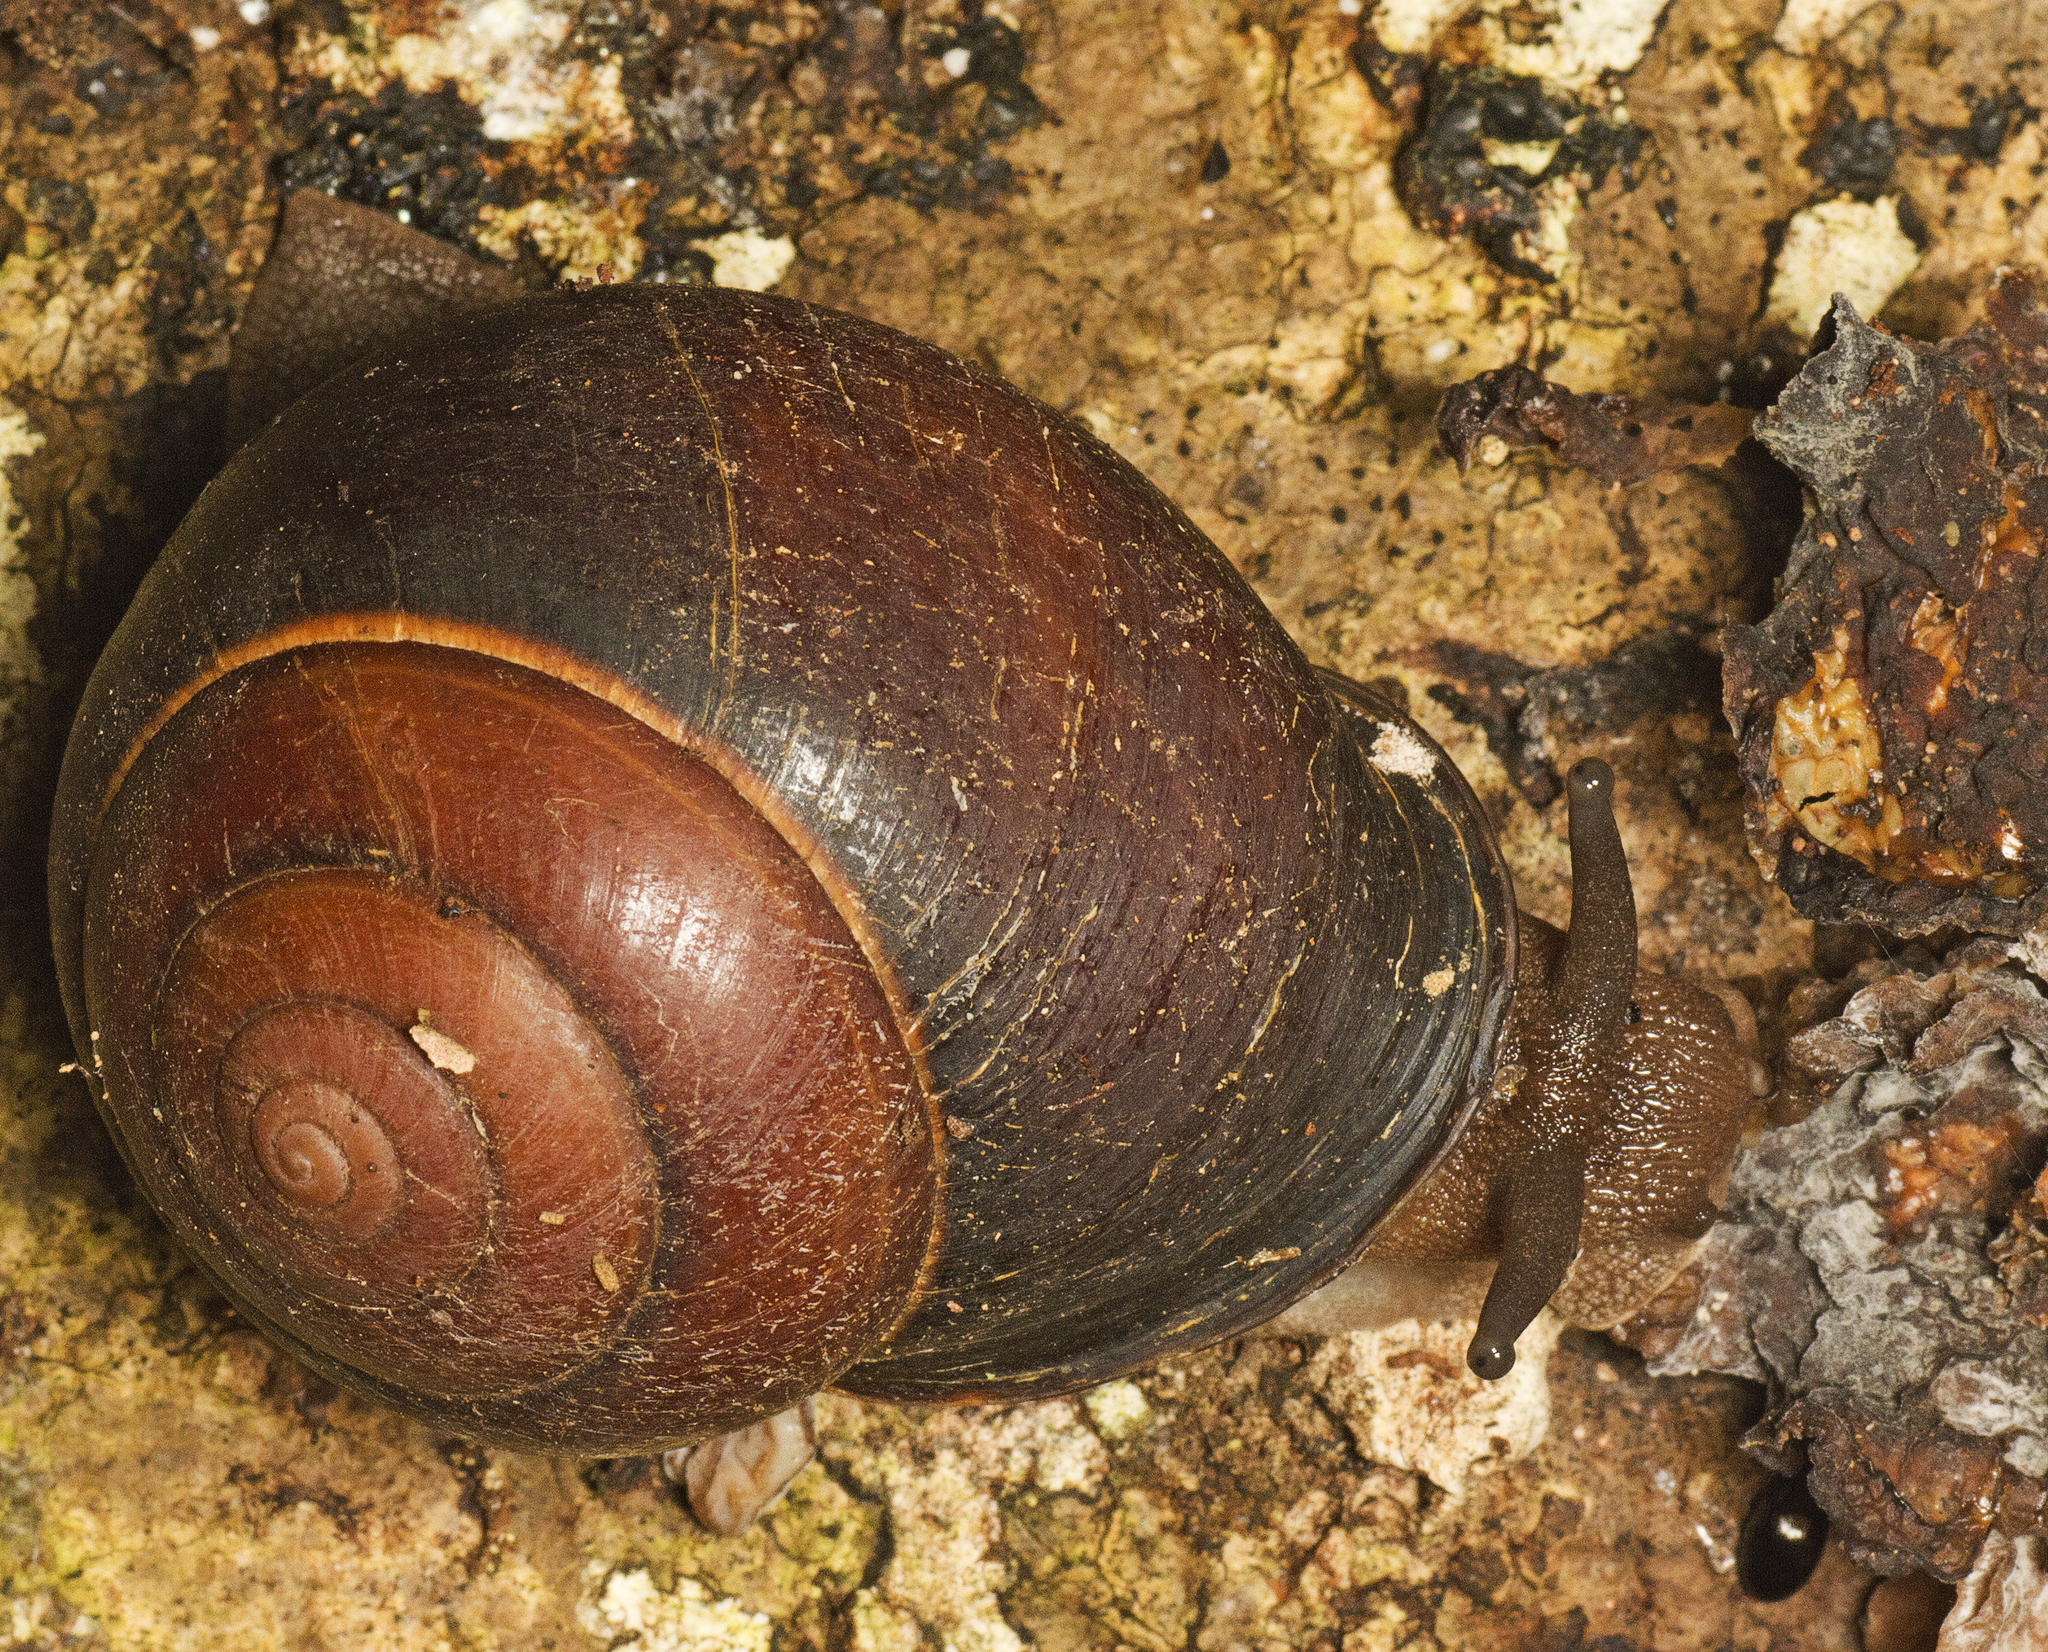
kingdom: Animalia
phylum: Mollusca
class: Gastropoda
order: Stylommatophora
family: Camaenidae
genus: Sphaerospira
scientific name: Sphaerospira fraseri
